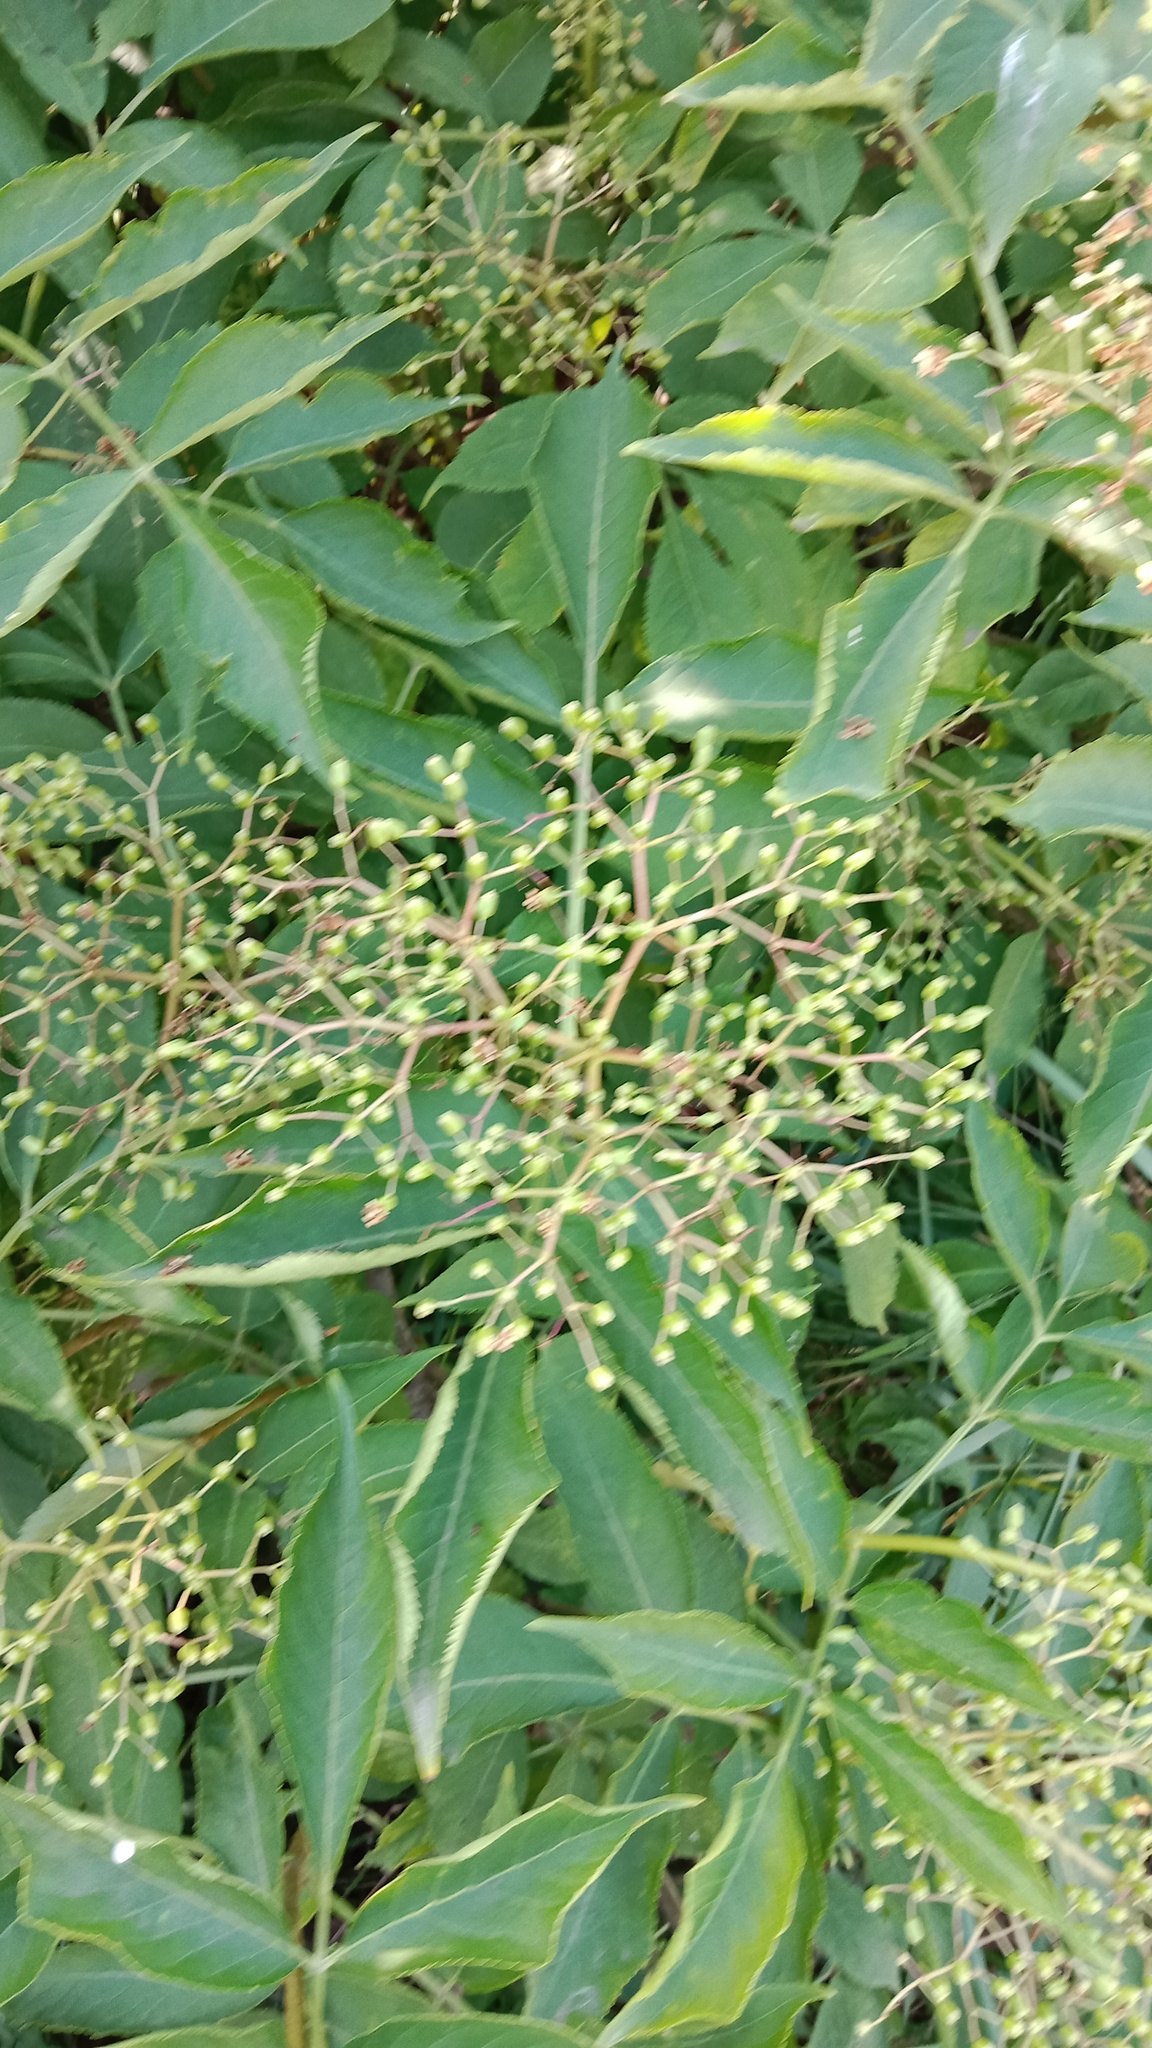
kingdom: Plantae
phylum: Tracheophyta
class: Magnoliopsida
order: Dipsacales
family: Viburnaceae
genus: Sambucus
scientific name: Sambucus nigra
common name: Elder
